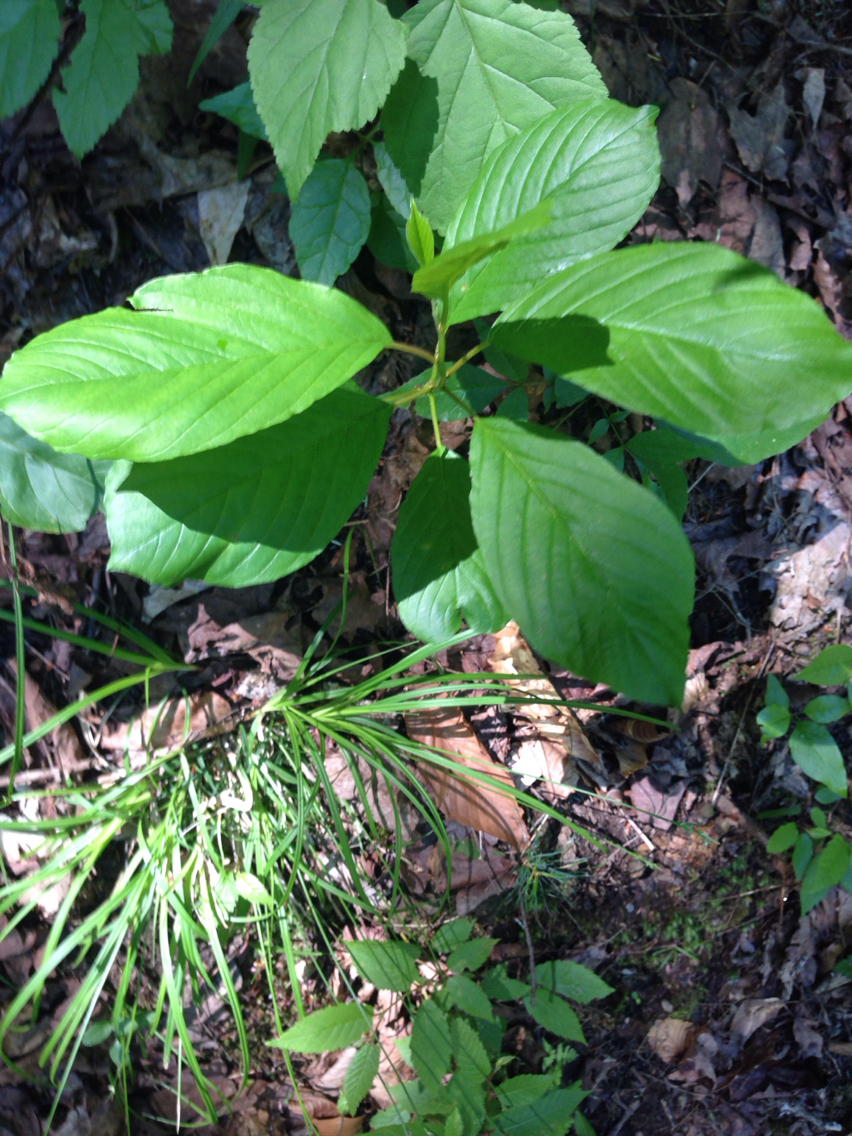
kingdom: Plantae
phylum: Tracheophyta
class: Magnoliopsida
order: Rosales
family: Rhamnaceae
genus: Frangula
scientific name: Frangula alnus
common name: Alder buckthorn
